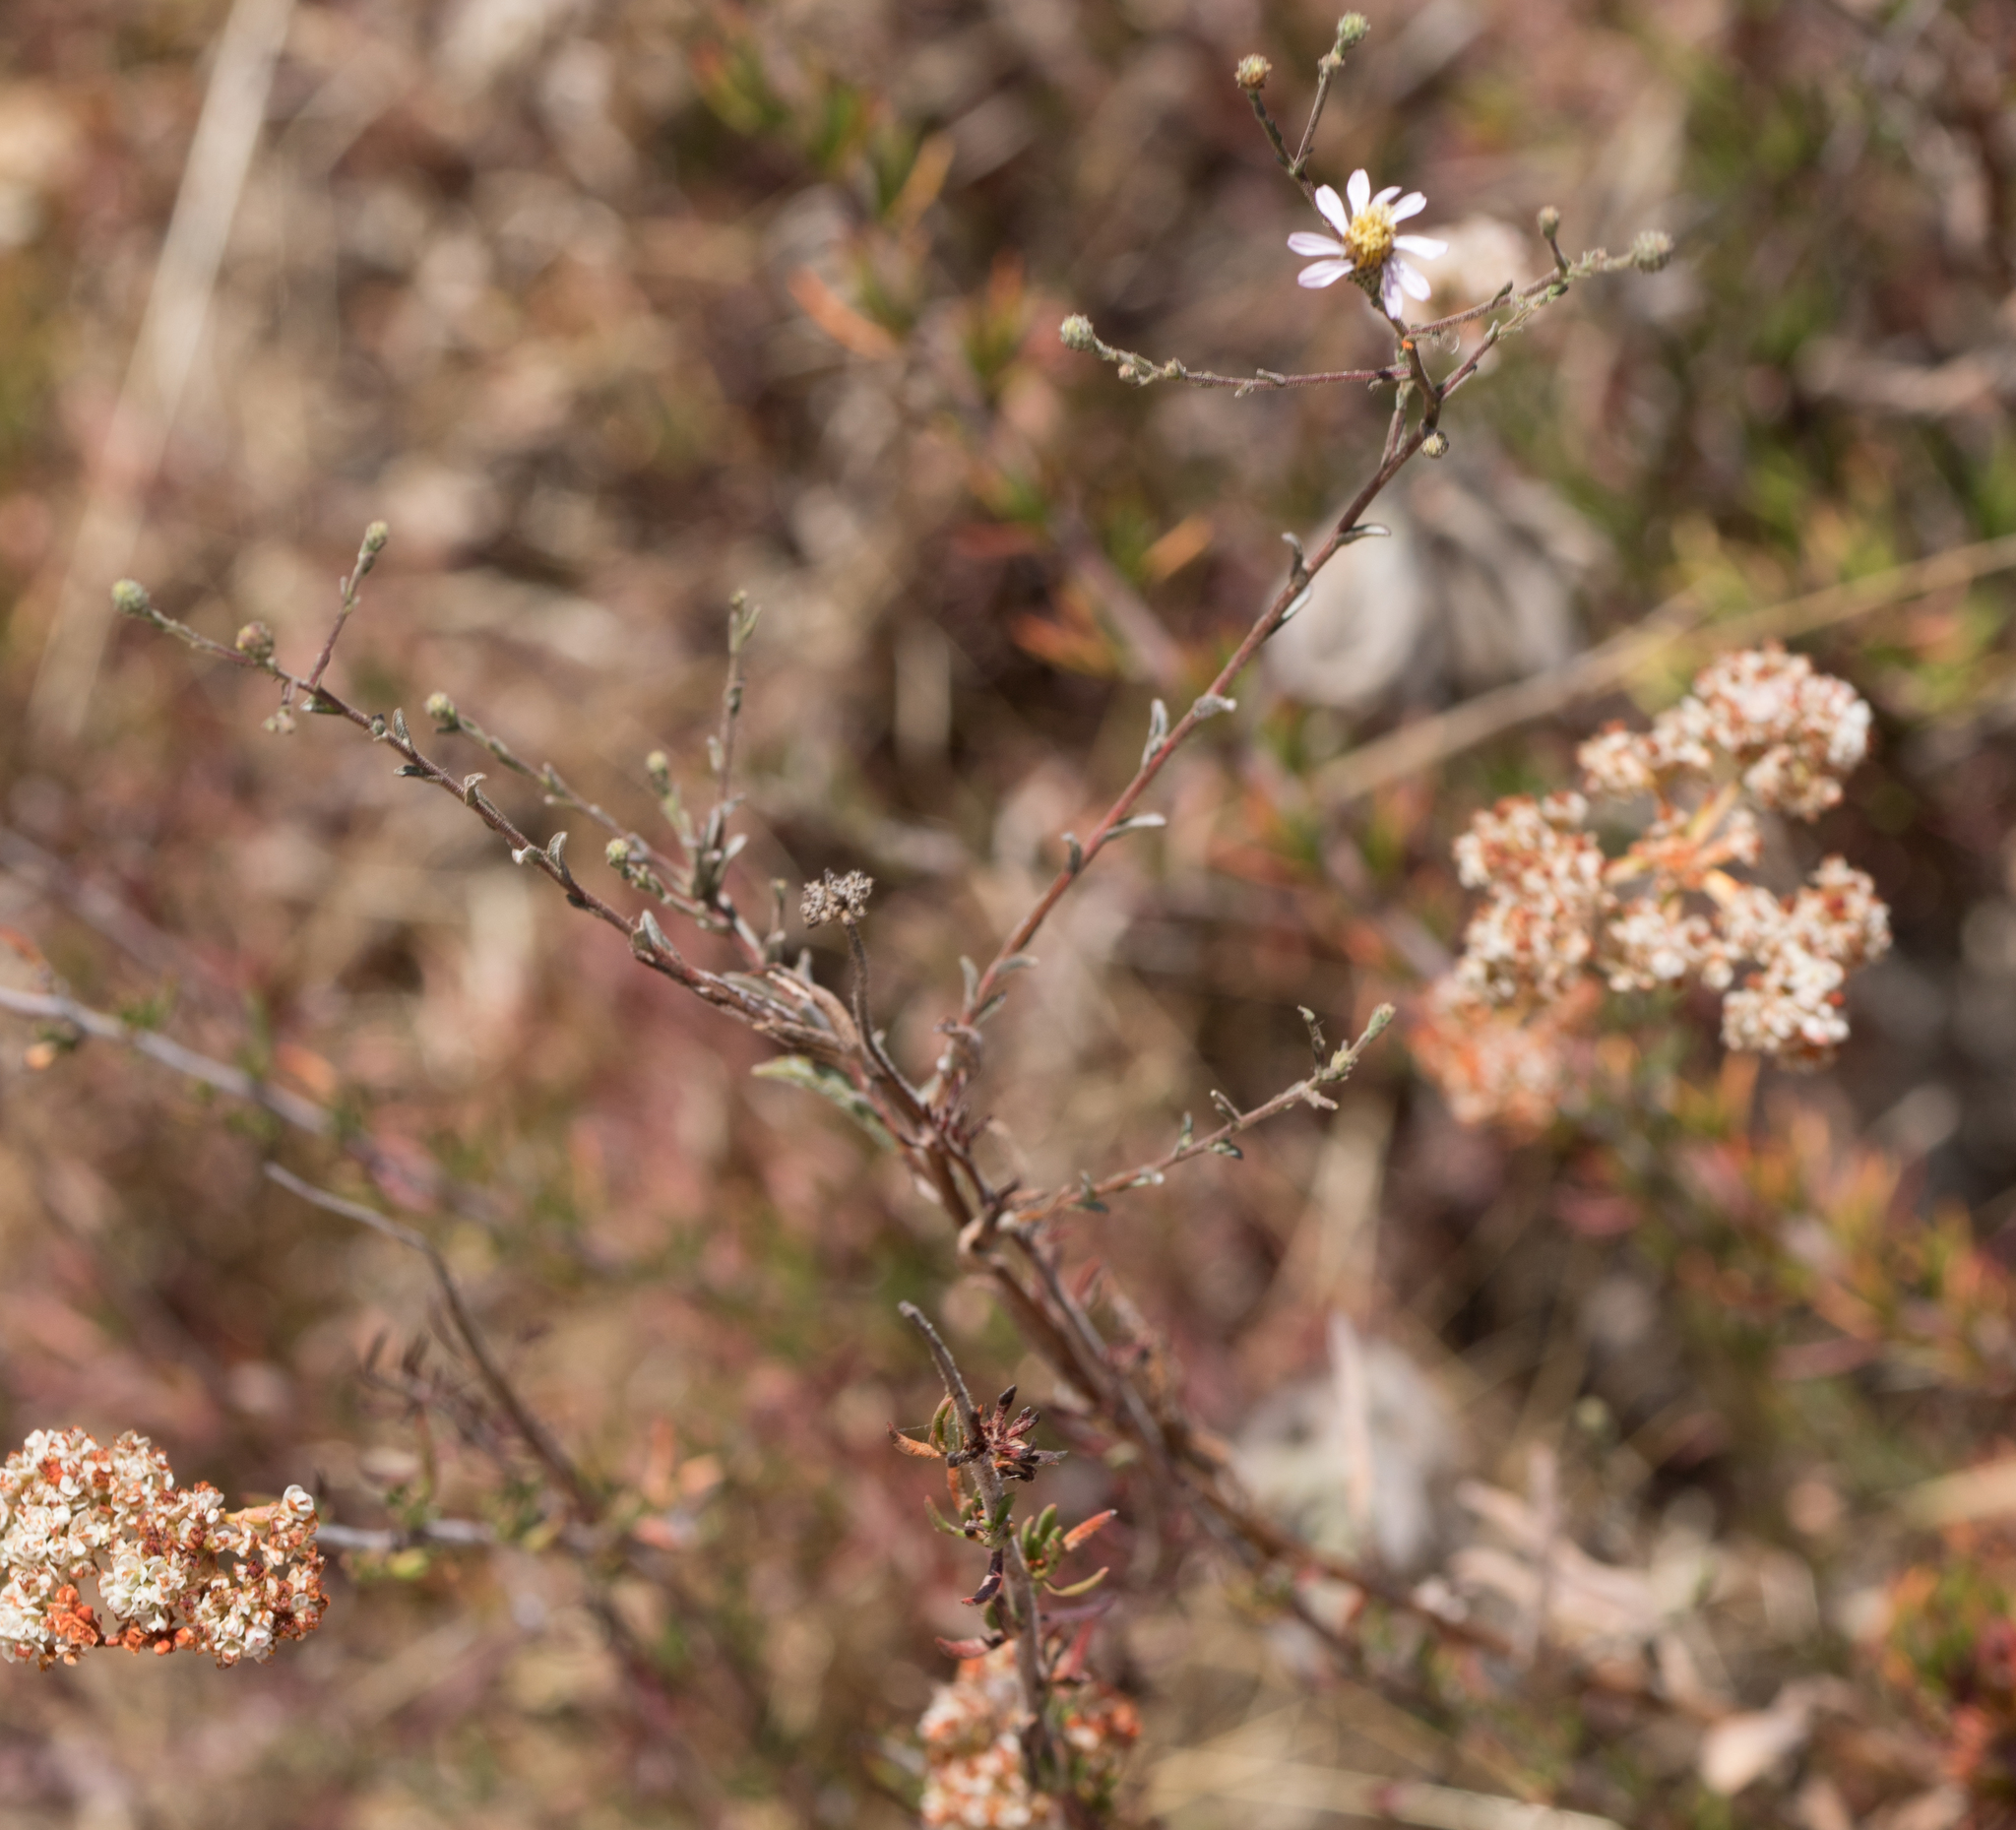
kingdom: Plantae
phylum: Tracheophyta
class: Magnoliopsida
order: Asterales
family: Asteraceae
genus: Corethrogyne
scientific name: Corethrogyne filaginifolia
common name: Sand-aster
